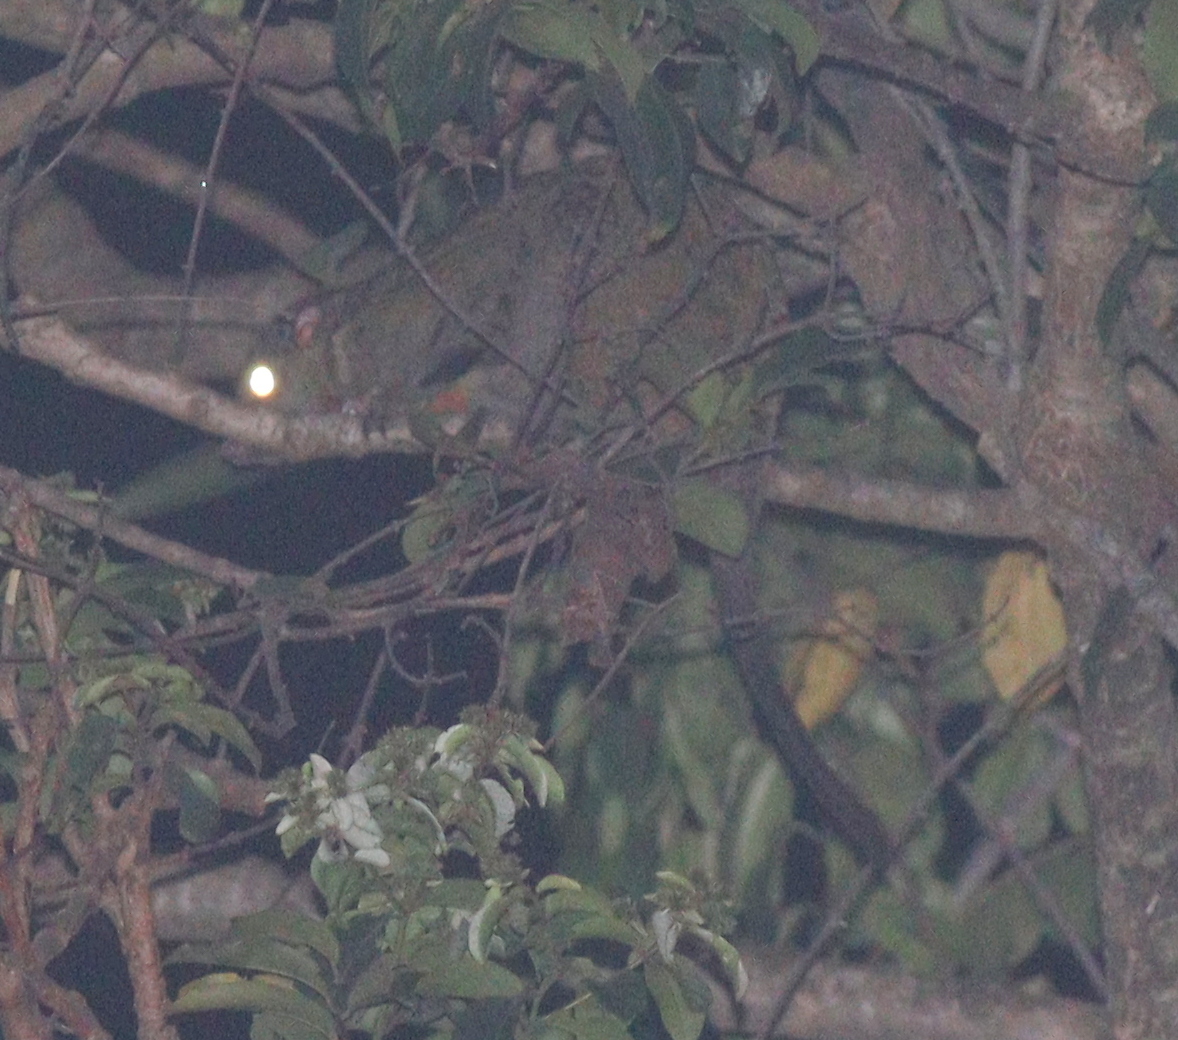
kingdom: Animalia
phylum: Chordata
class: Mammalia
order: Rodentia
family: Anomaluridae
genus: Anomalurus
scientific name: Anomalurus beecrofti
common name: Beecroft's scaly-tailed squirrel
